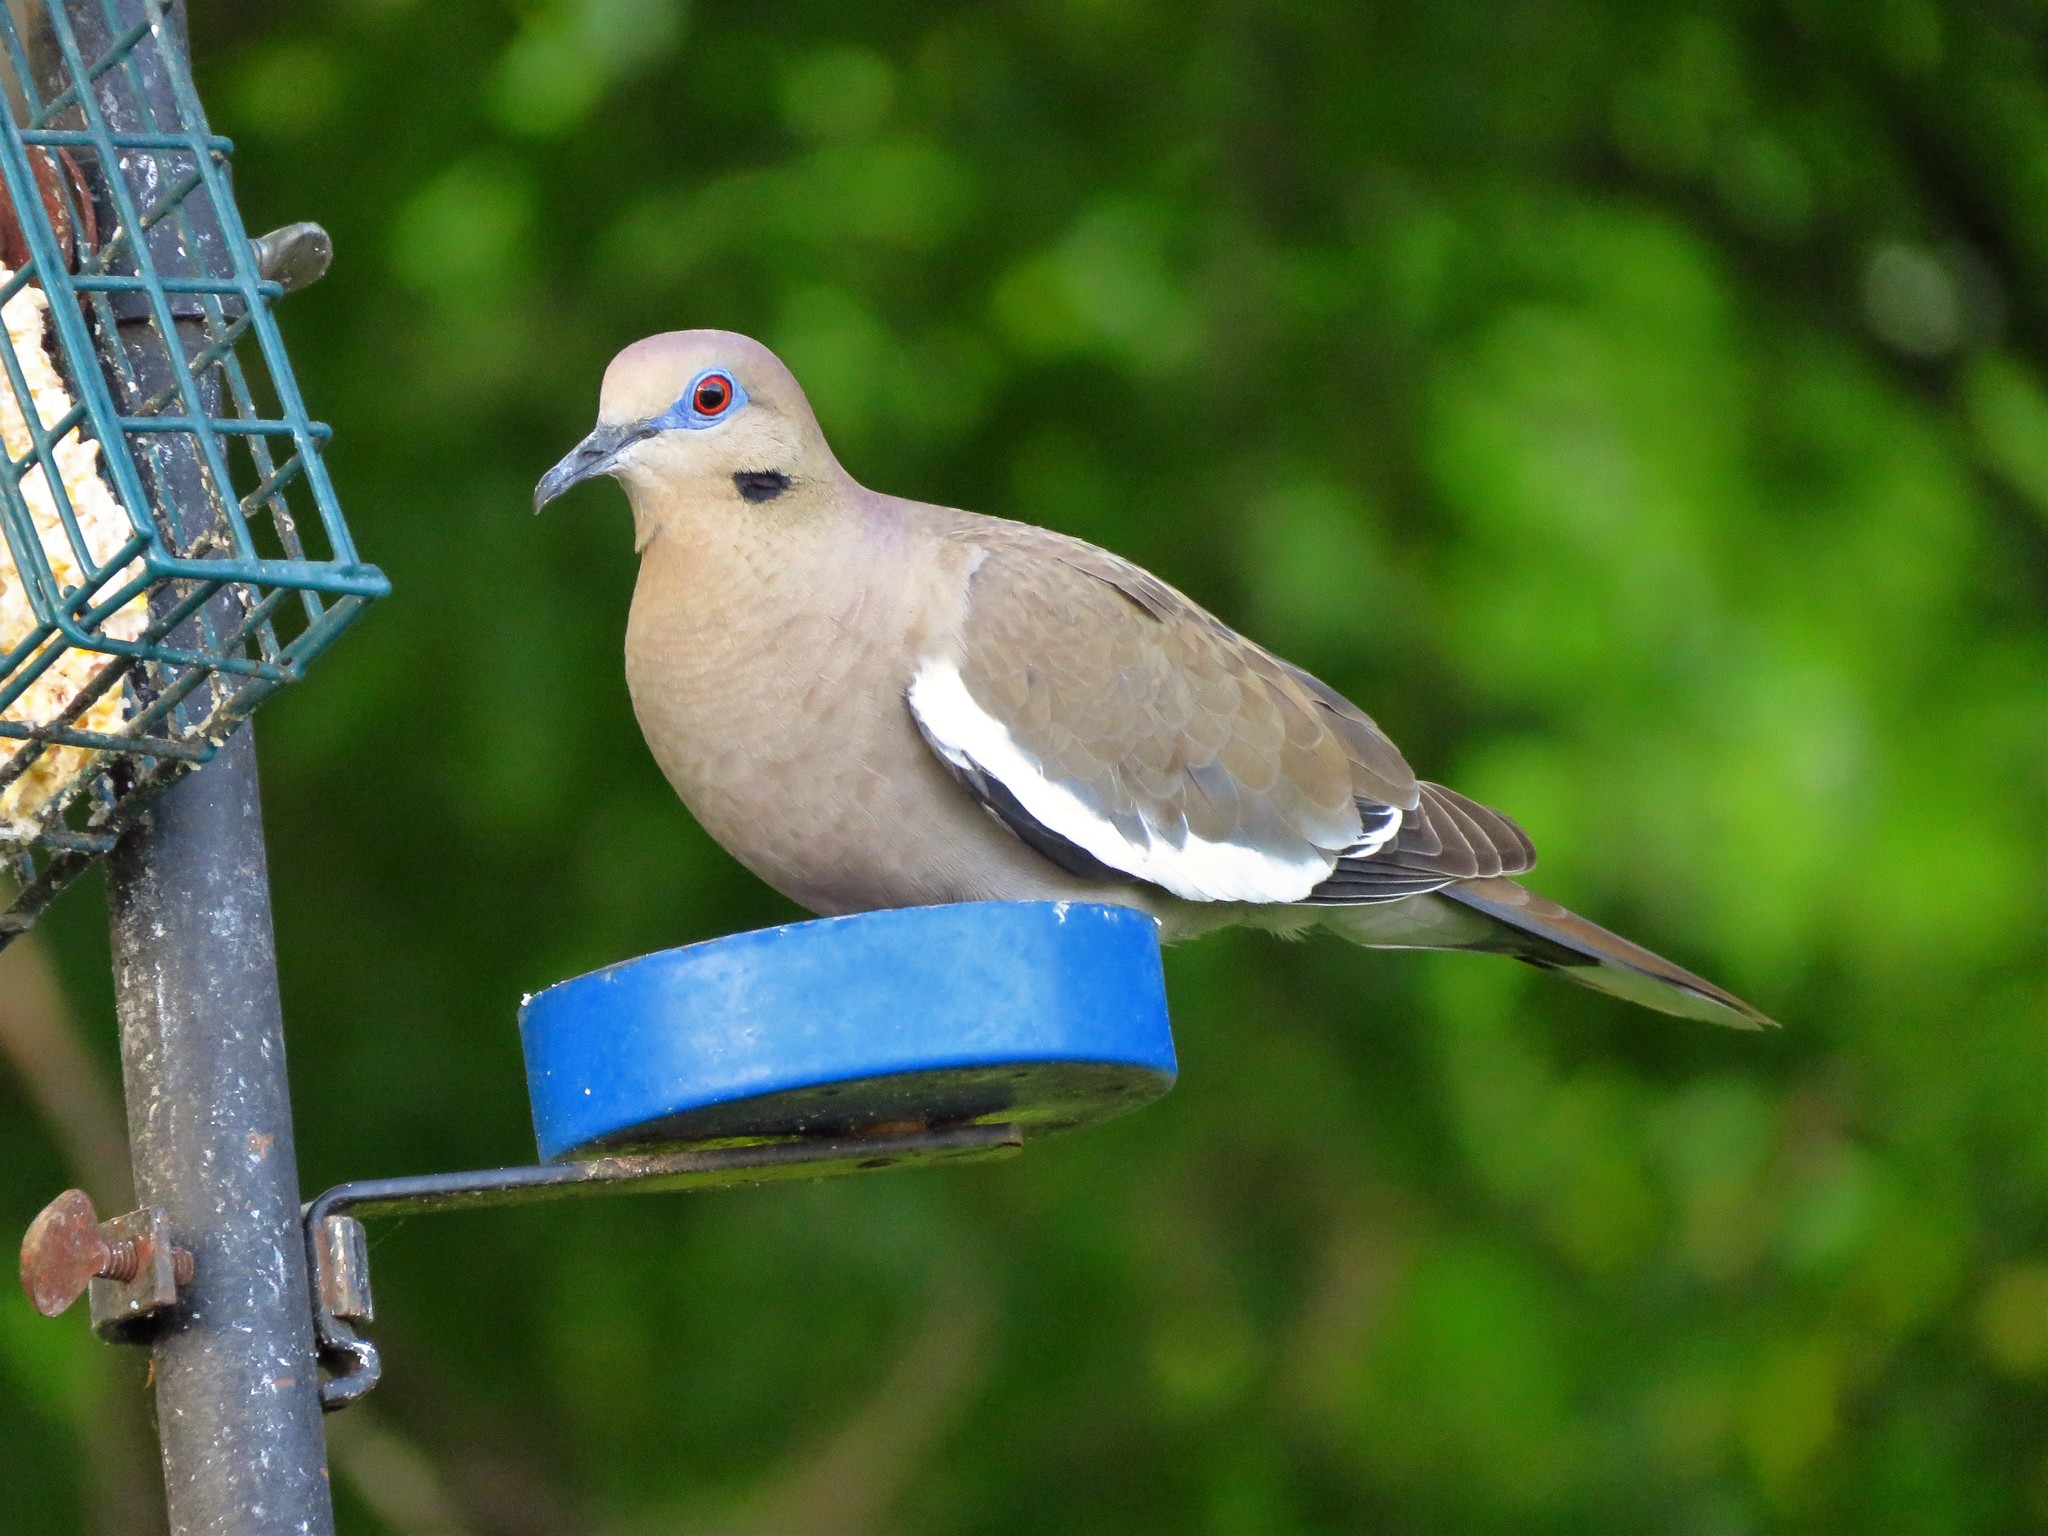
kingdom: Animalia
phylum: Chordata
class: Aves
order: Columbiformes
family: Columbidae
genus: Zenaida
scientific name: Zenaida asiatica
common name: White-winged dove
